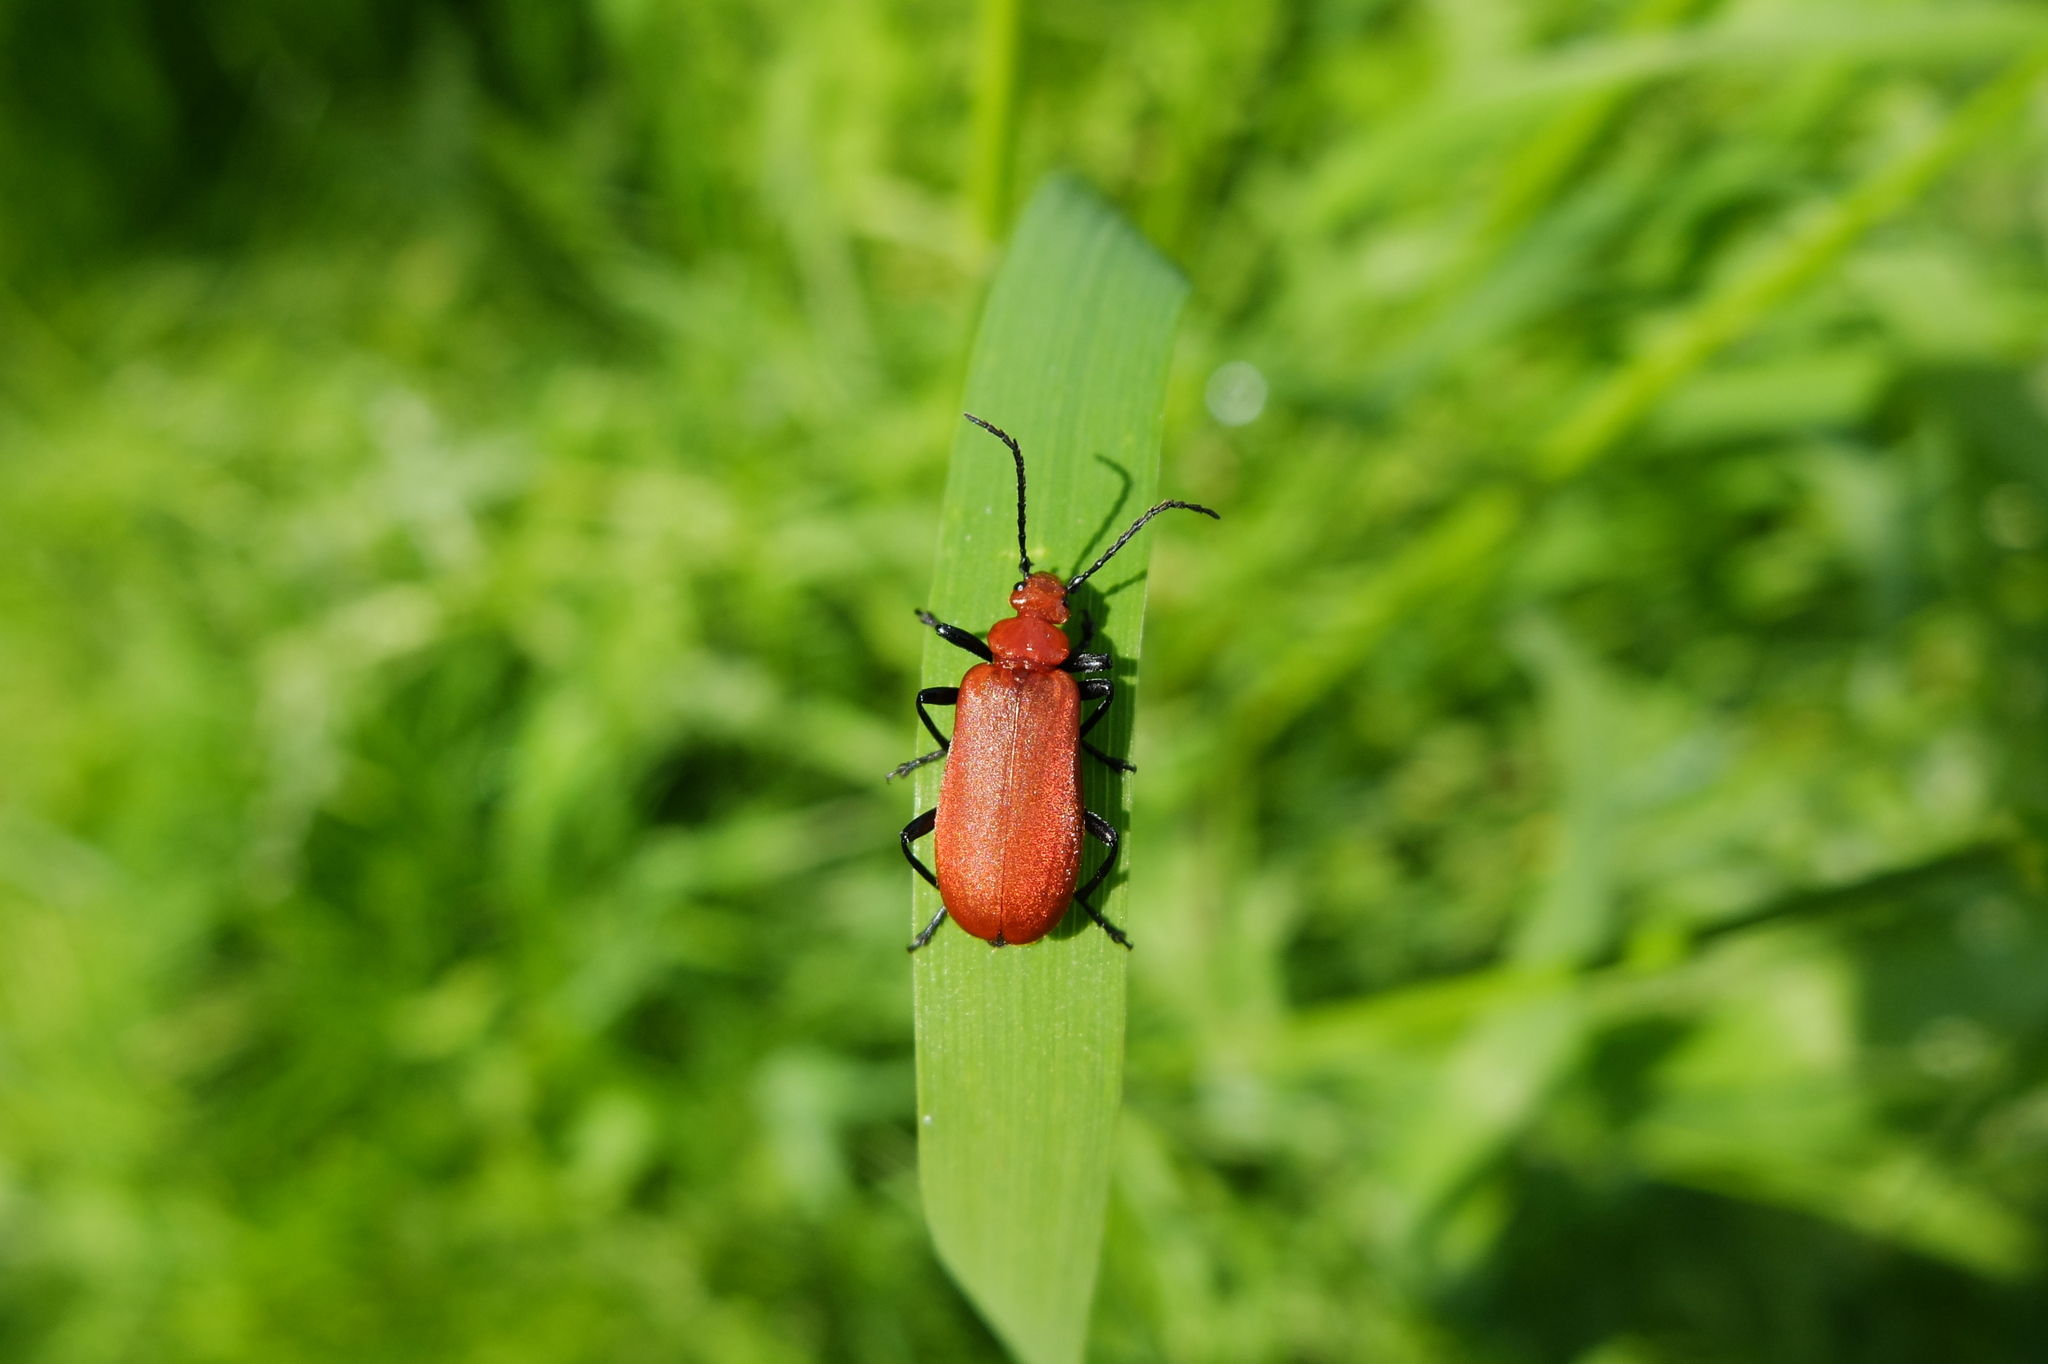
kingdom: Animalia
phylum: Arthropoda
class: Insecta
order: Coleoptera
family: Pyrochroidae
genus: Pyrochroa
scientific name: Pyrochroa serraticornis
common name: Red-headed cardinal beetle
